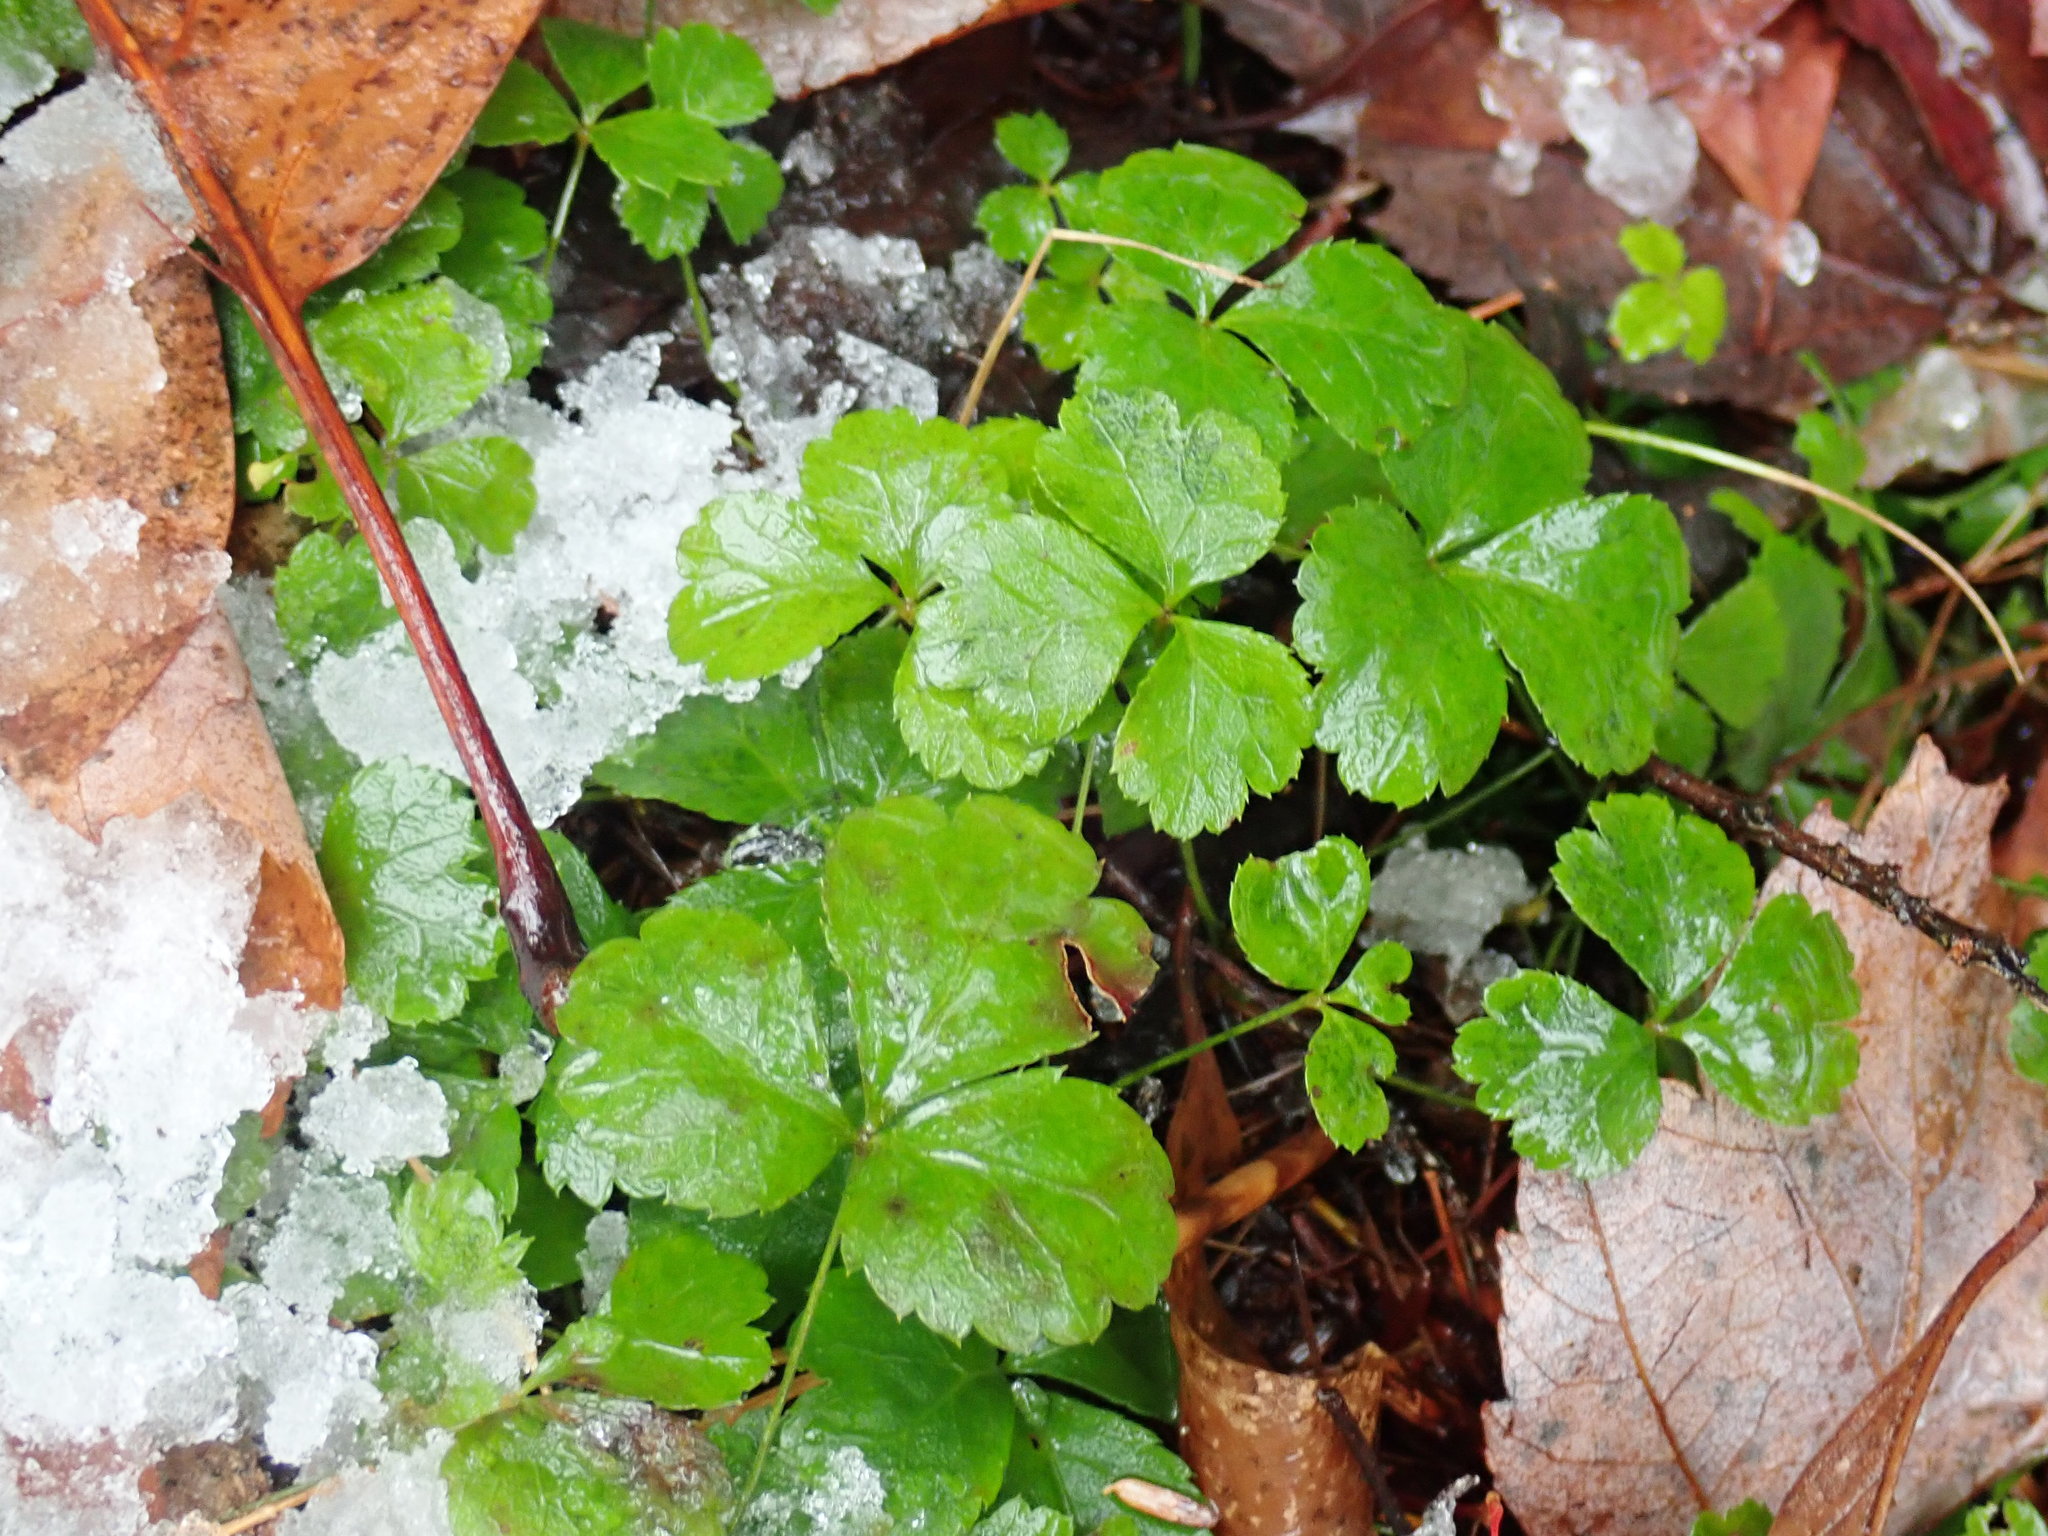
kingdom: Plantae
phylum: Tracheophyta
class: Magnoliopsida
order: Ranunculales
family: Ranunculaceae
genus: Coptis
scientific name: Coptis trifolia
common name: Canker-root
